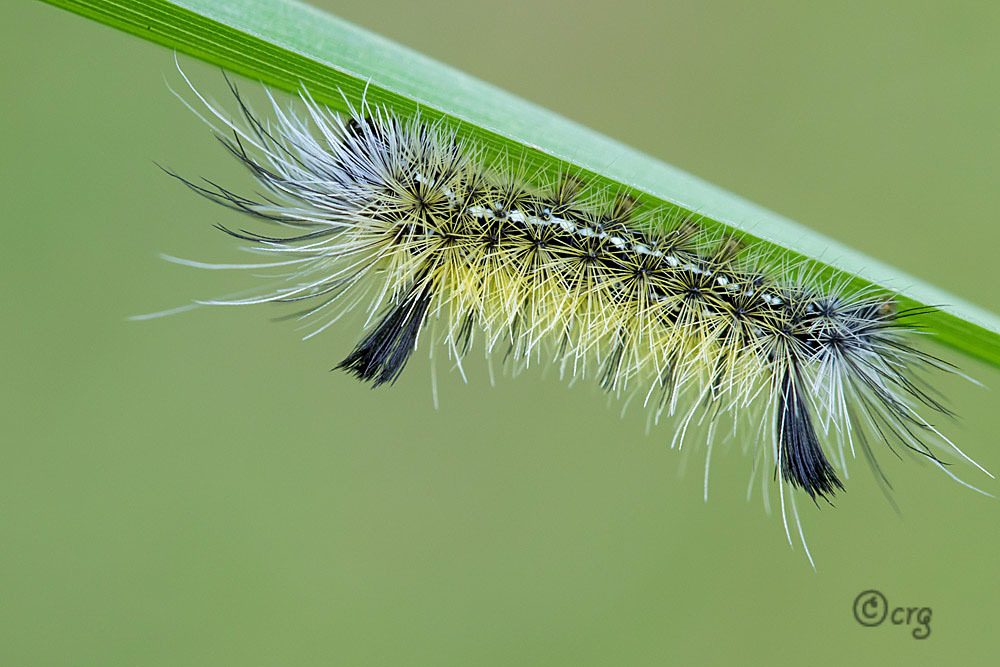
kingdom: Animalia
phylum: Arthropoda
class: Insecta
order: Lepidoptera
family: Erebidae
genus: Ctenucha
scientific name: Ctenucha virginica
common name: Virginia ctenucha moth
